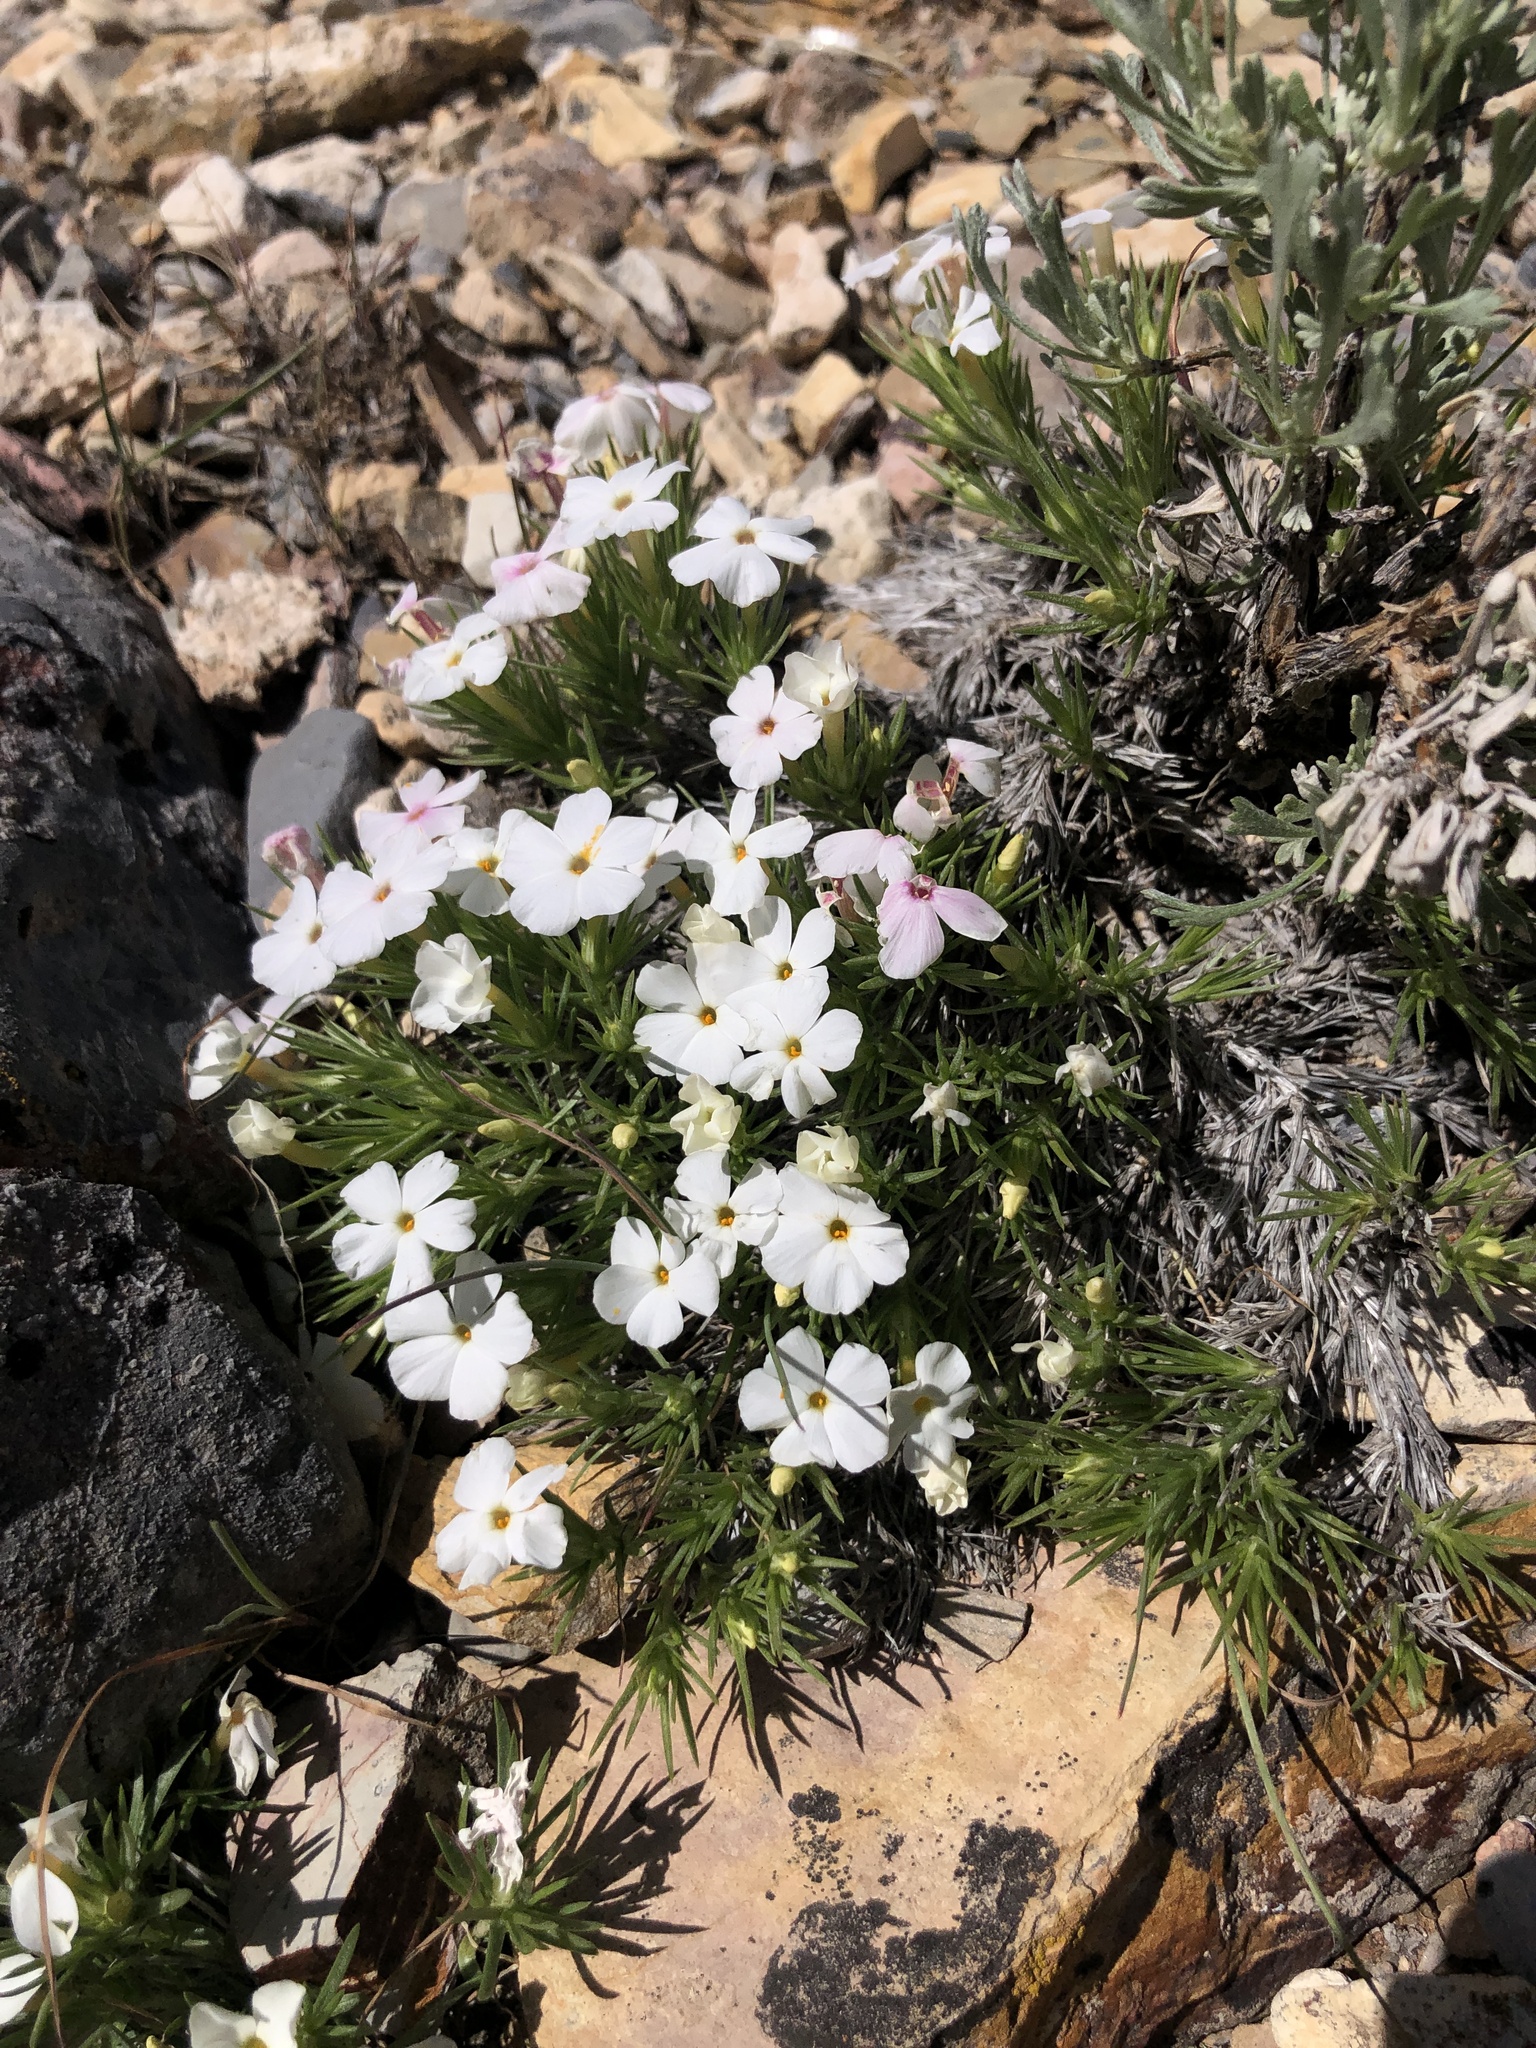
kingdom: Plantae
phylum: Tracheophyta
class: Magnoliopsida
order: Ericales
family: Polemoniaceae
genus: Phlox
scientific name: Phlox austromontana
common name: Desert phlox
